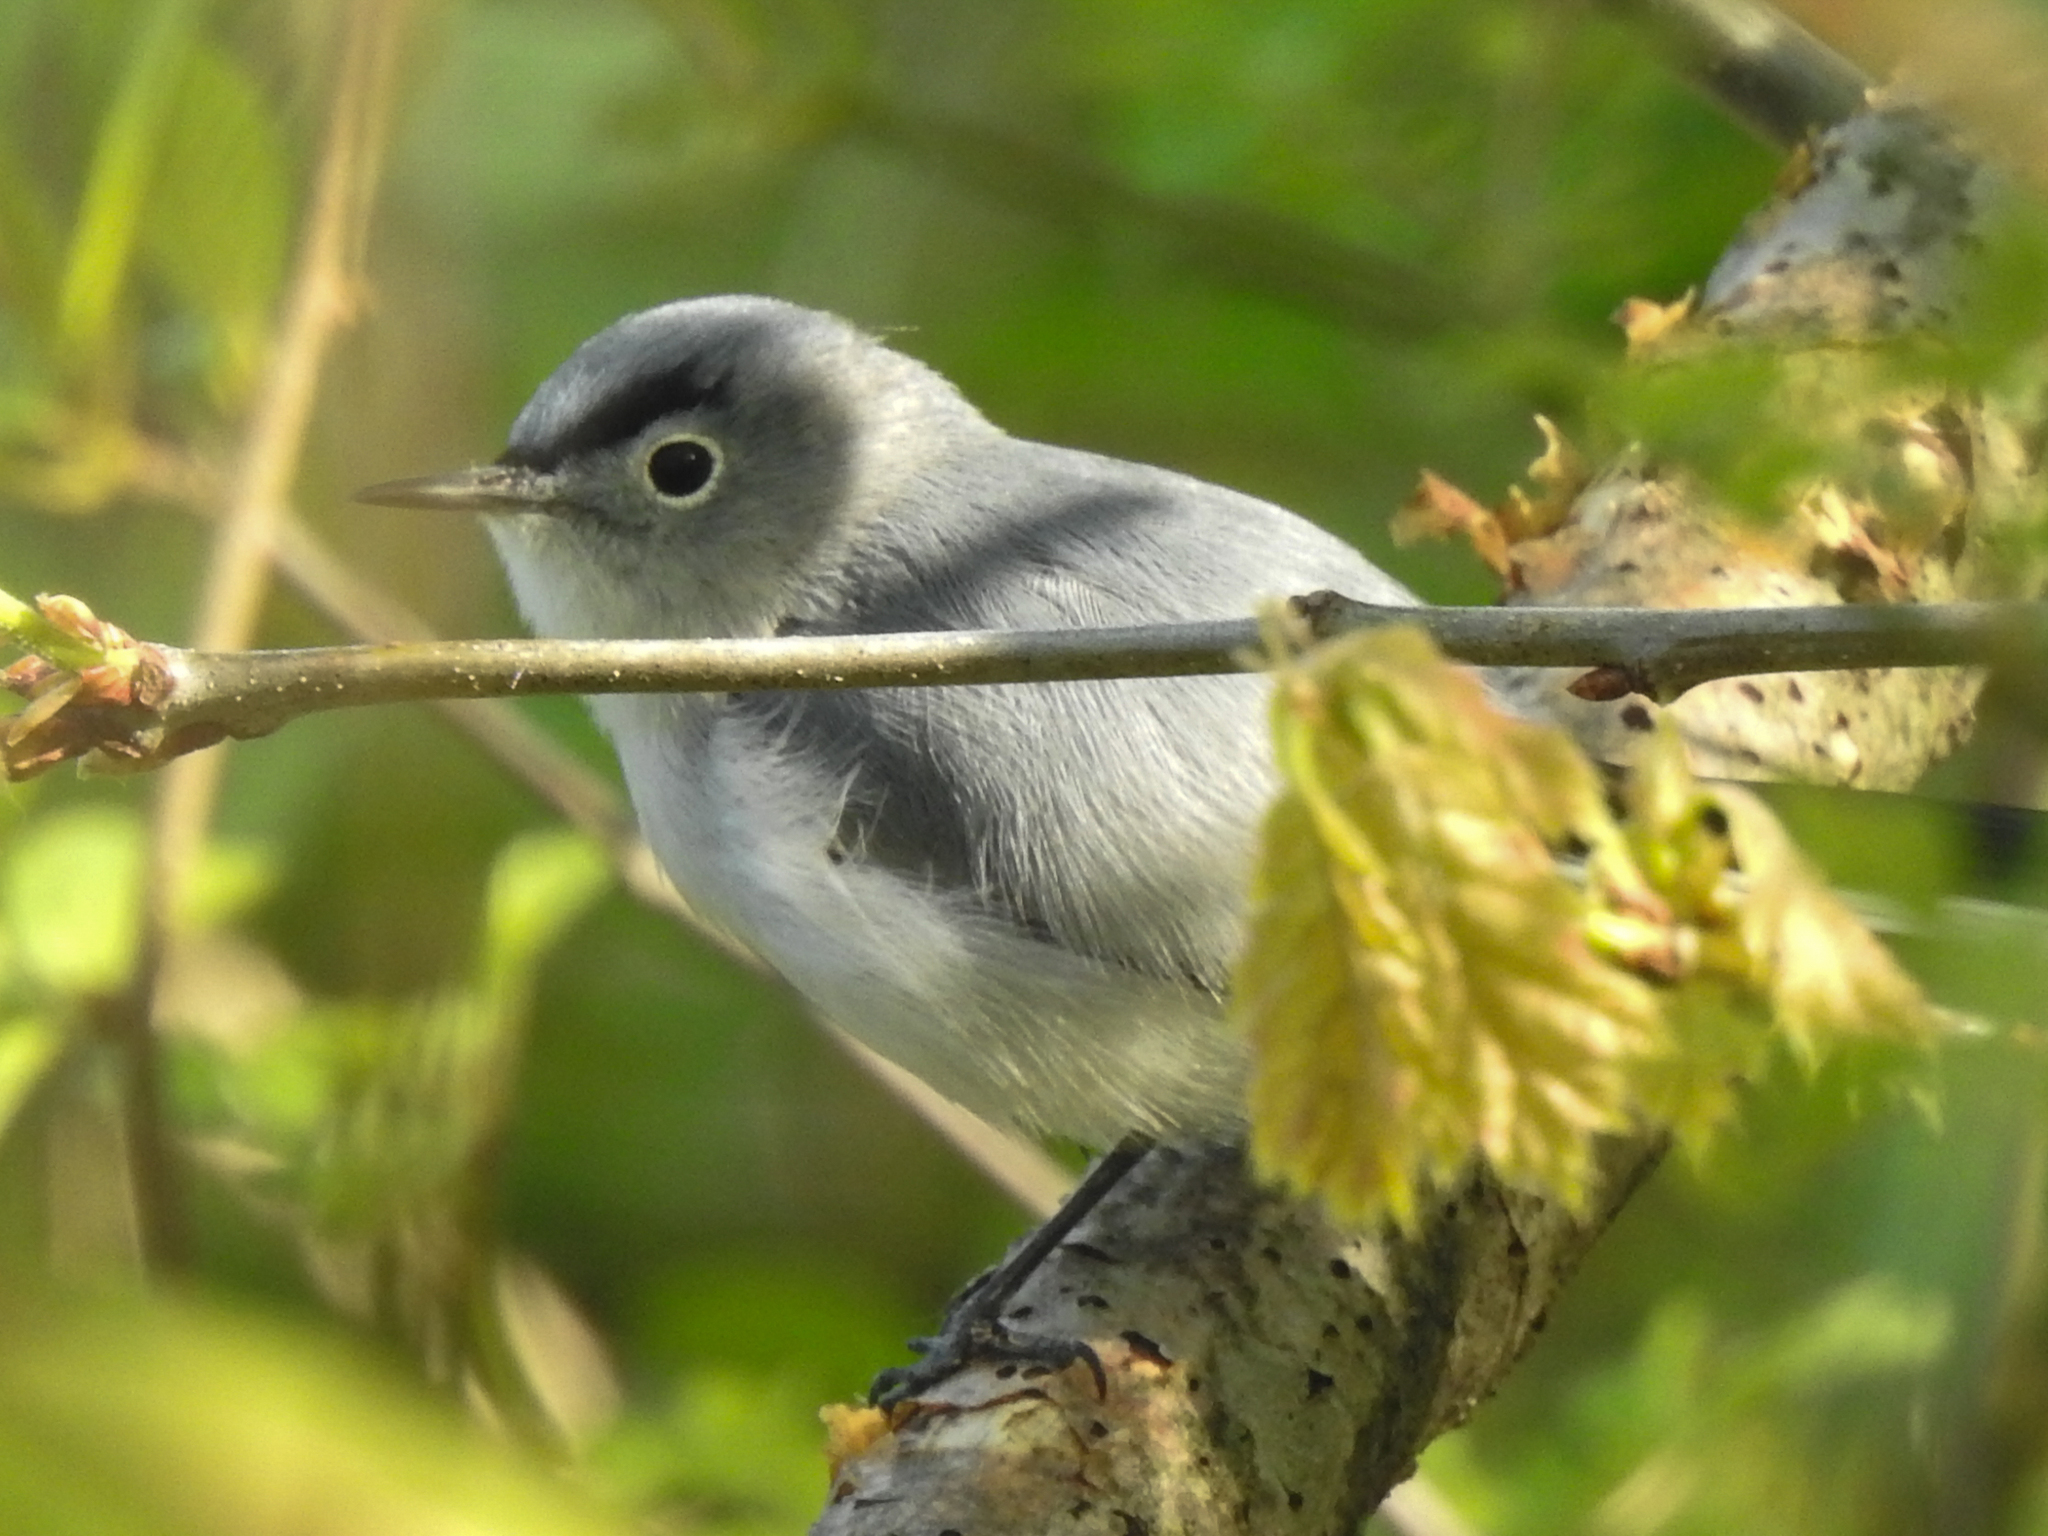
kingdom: Animalia
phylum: Chordata
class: Aves
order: Passeriformes
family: Polioptilidae
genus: Polioptila
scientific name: Polioptila caerulea
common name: Blue-gray gnatcatcher
